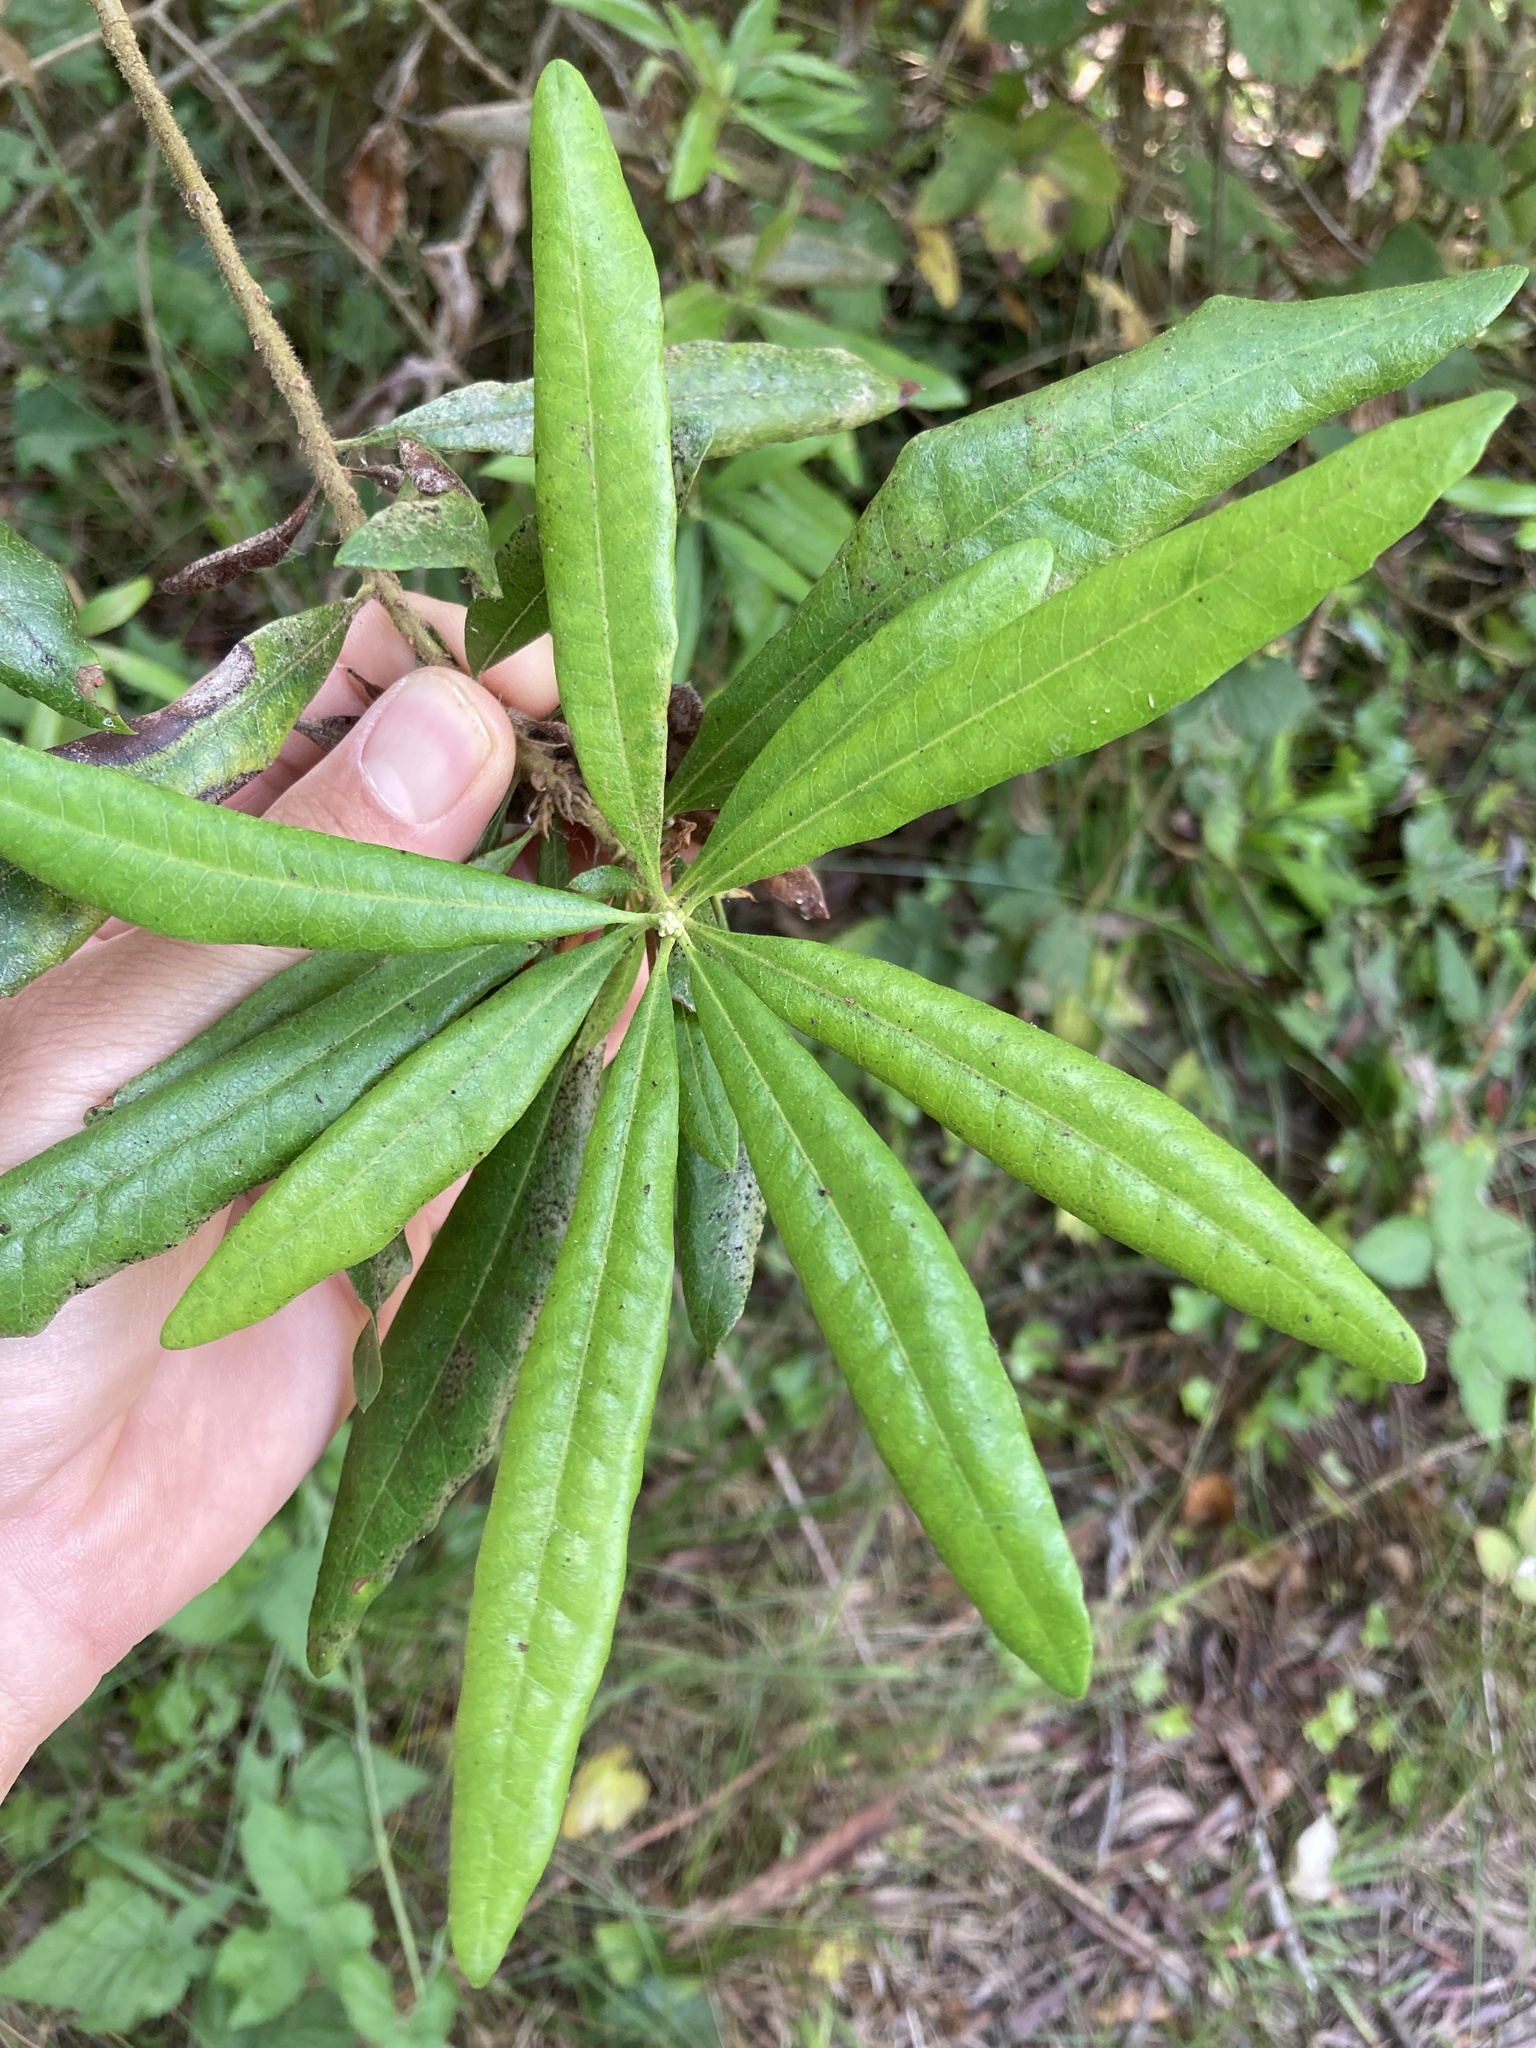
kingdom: Plantae
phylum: Tracheophyta
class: Magnoliopsida
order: Fagales
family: Myricaceae
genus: Morella
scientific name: Morella californica
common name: California wax-myrtle
